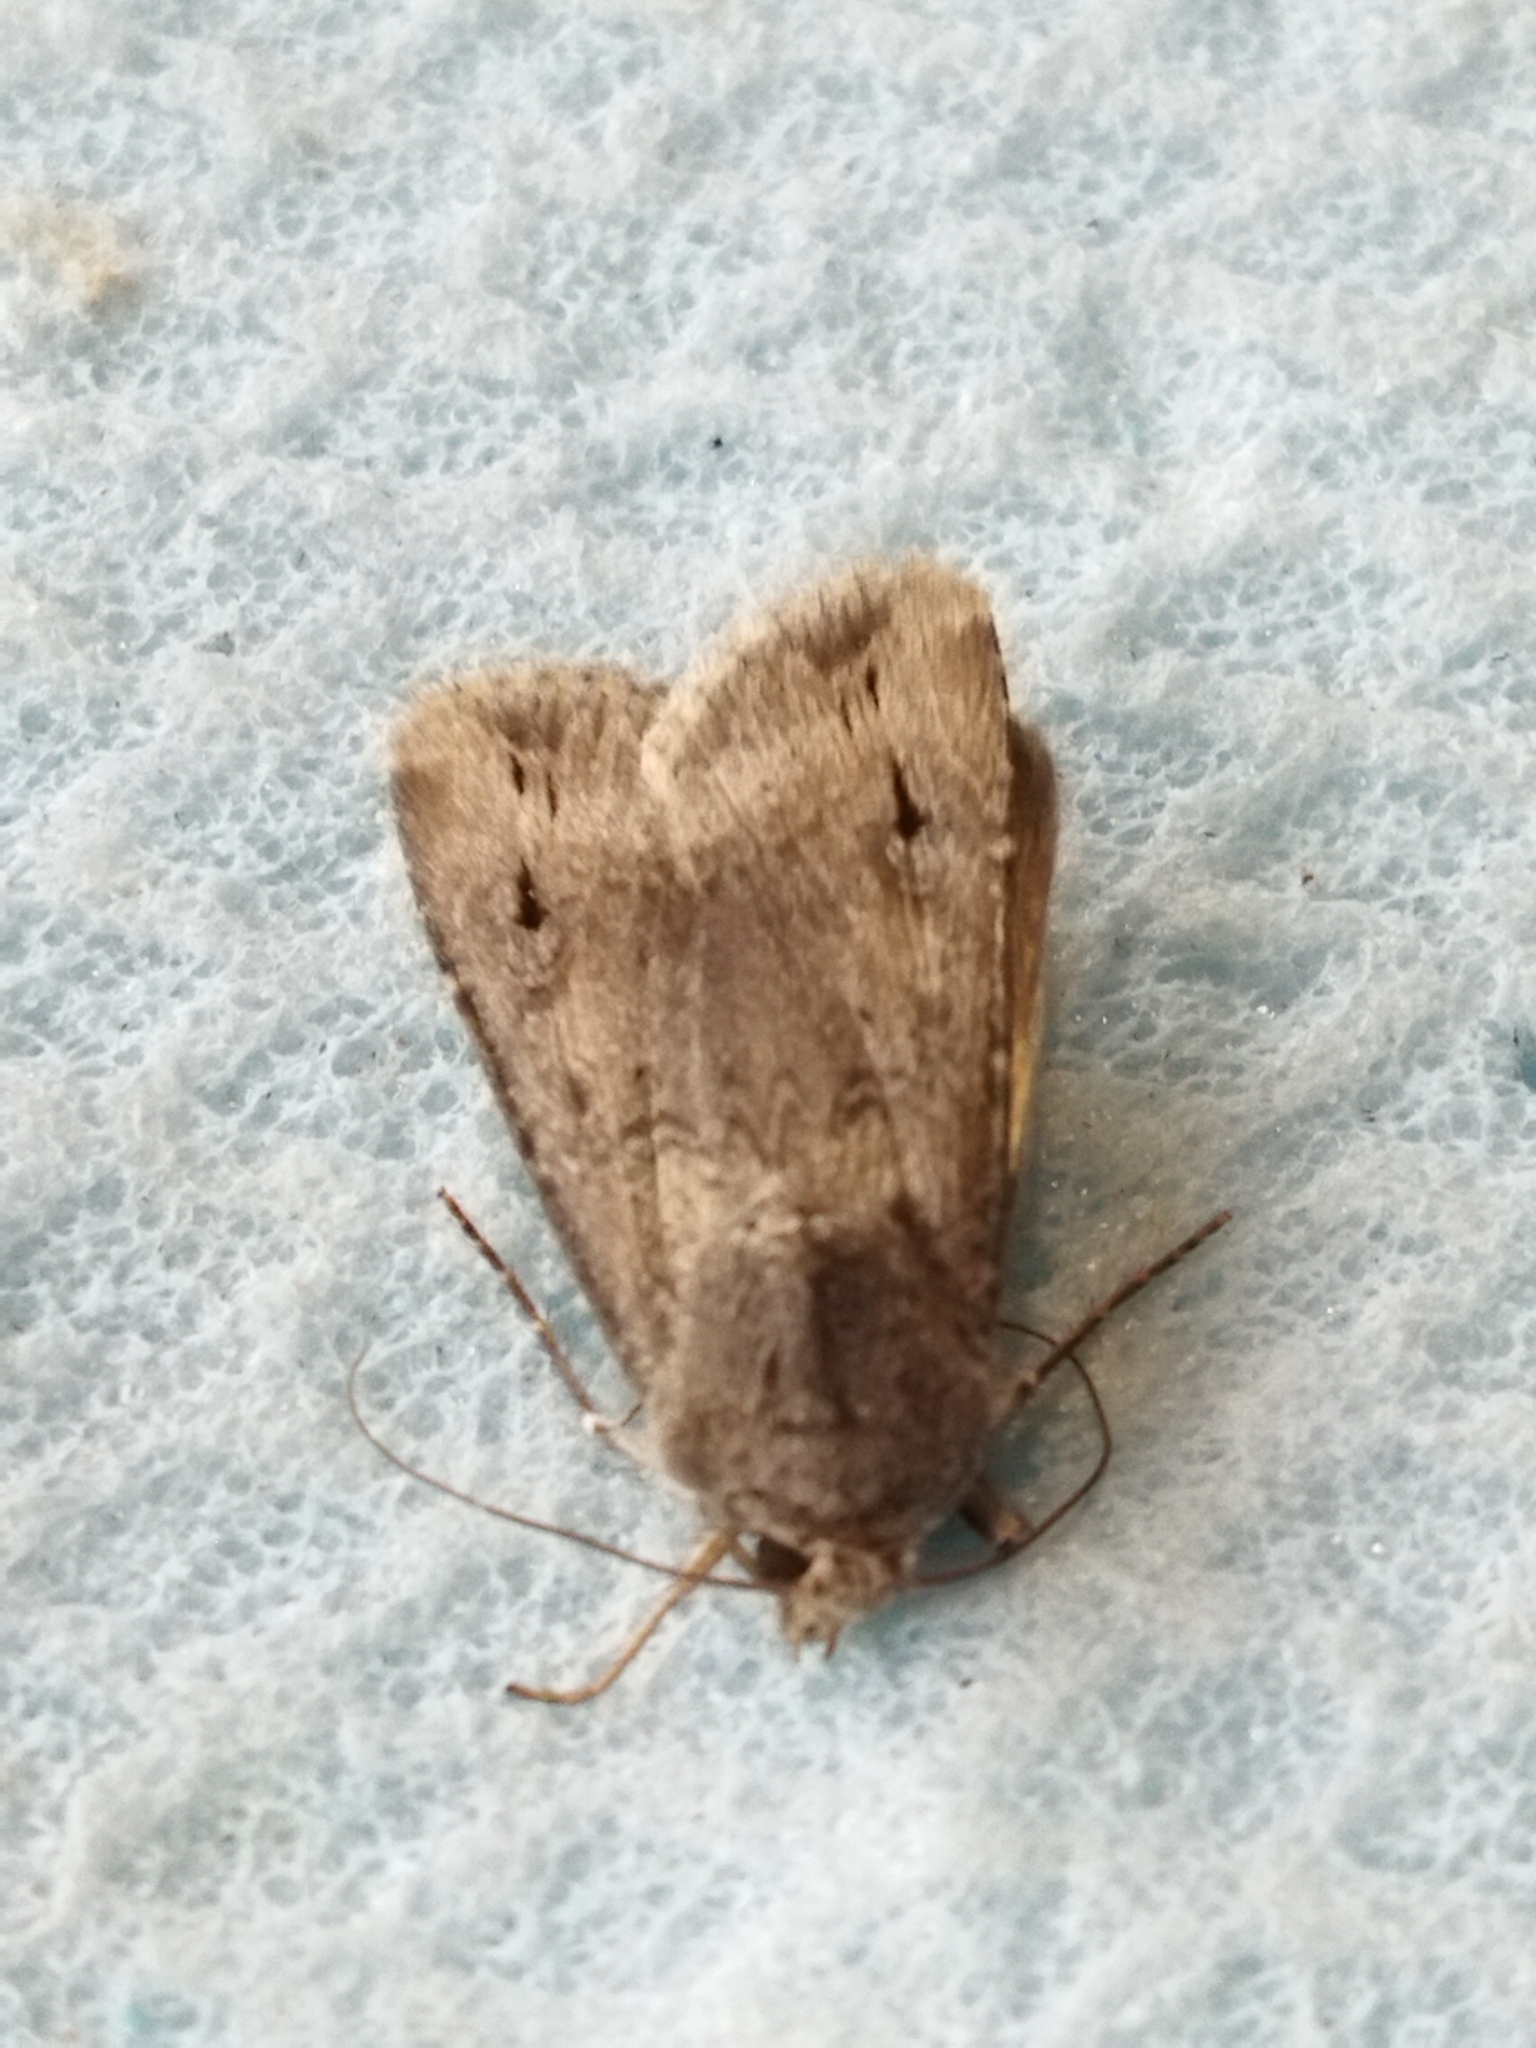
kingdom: Animalia
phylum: Arthropoda
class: Insecta
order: Lepidoptera
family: Noctuidae
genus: Agrotis
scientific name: Agrotis ipsilon
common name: Dark sword-grass
